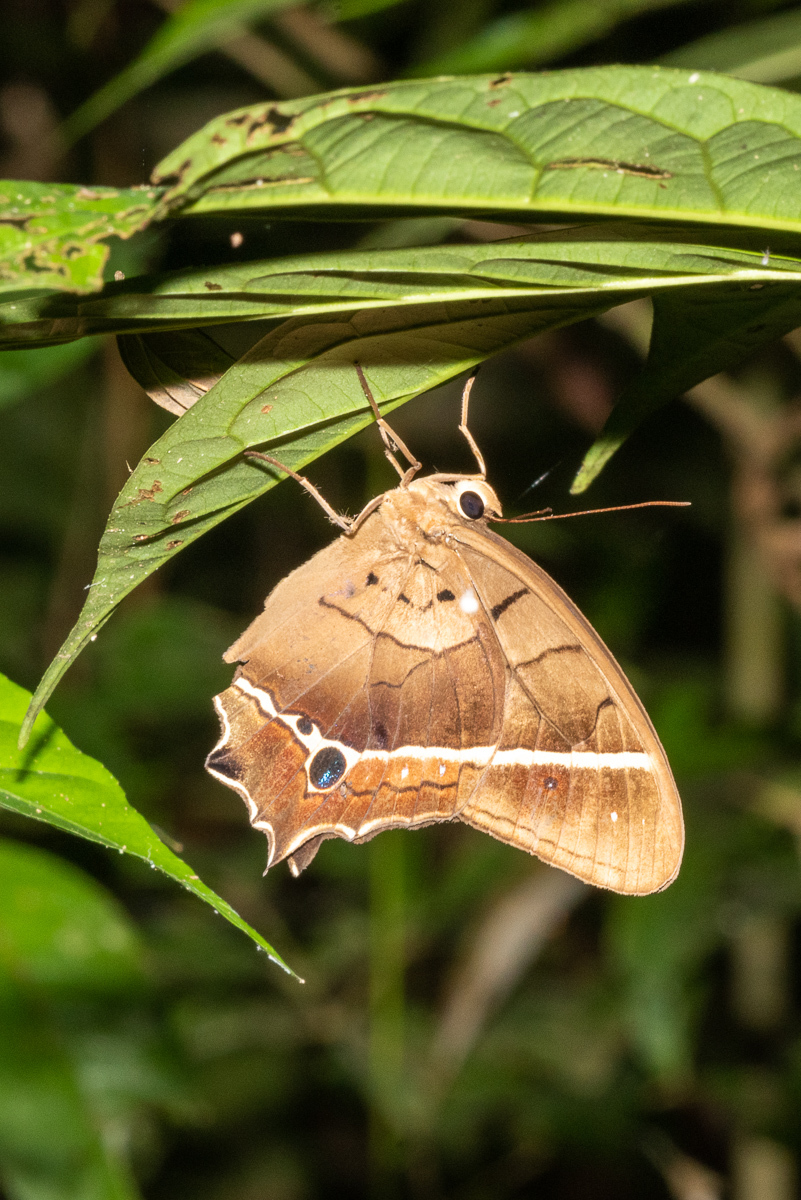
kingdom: Animalia
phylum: Arthropoda
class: Insecta
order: Lepidoptera
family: Nymphalidae
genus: Antirrhea
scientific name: Antirrhea philoctetes
